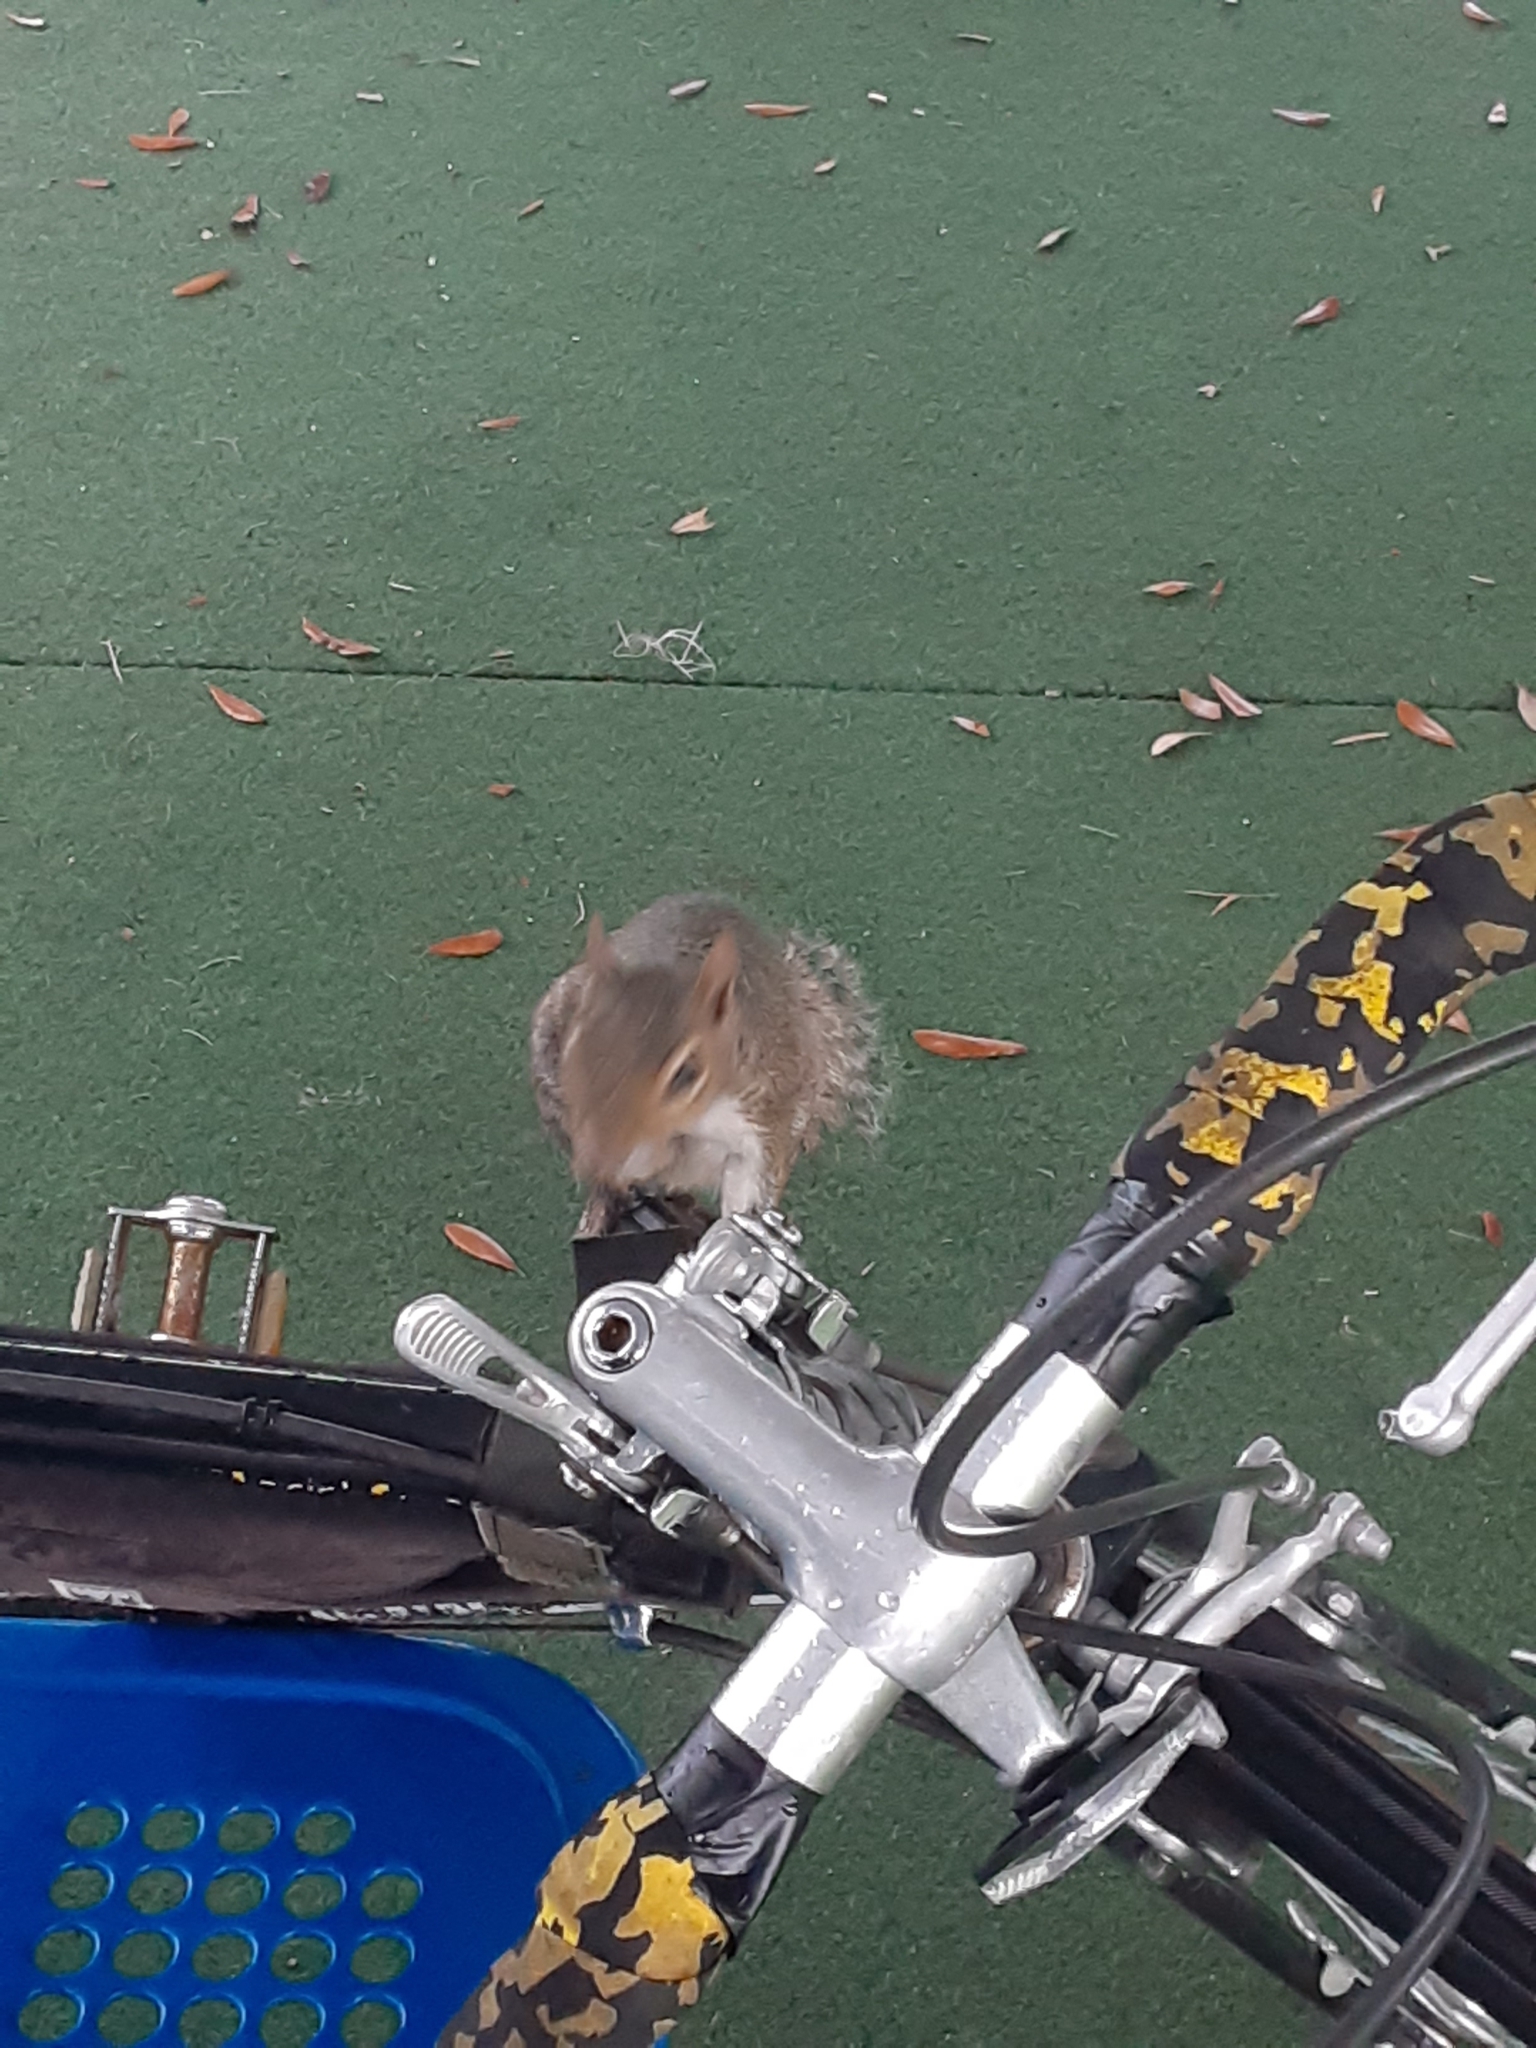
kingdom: Animalia
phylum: Chordata
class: Mammalia
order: Rodentia
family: Sciuridae
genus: Sciurus
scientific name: Sciurus carolinensis
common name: Eastern gray squirrel
